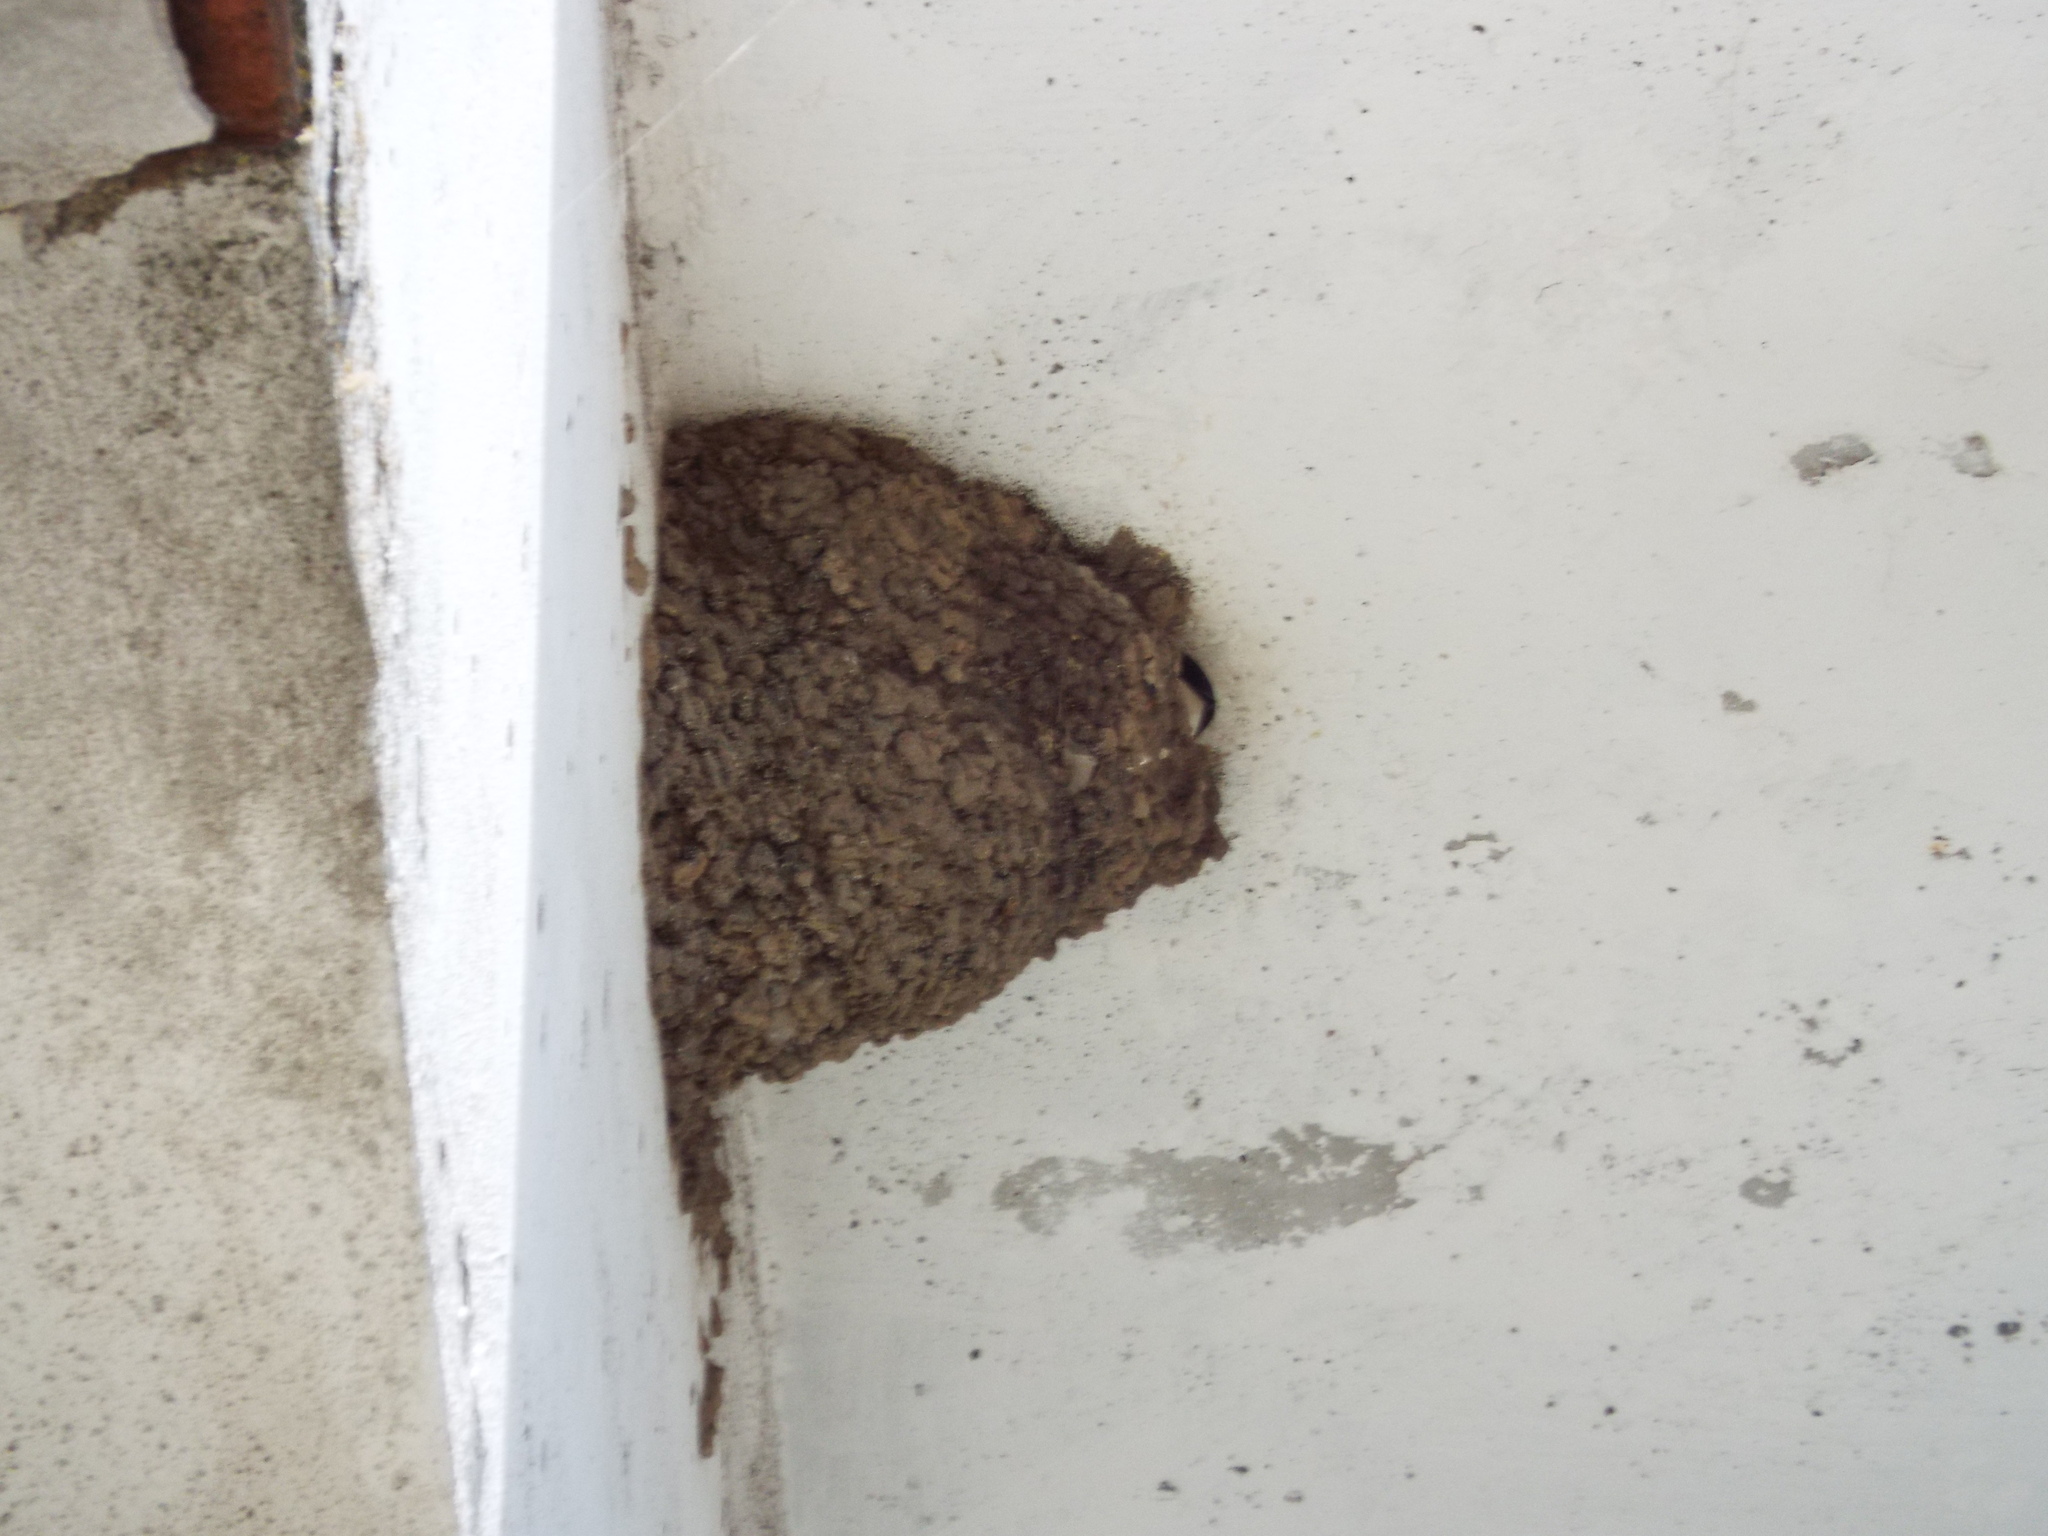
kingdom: Animalia
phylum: Chordata
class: Aves
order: Passeriformes
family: Hirundinidae
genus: Delichon
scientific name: Delichon urbicum
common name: Common house martin
